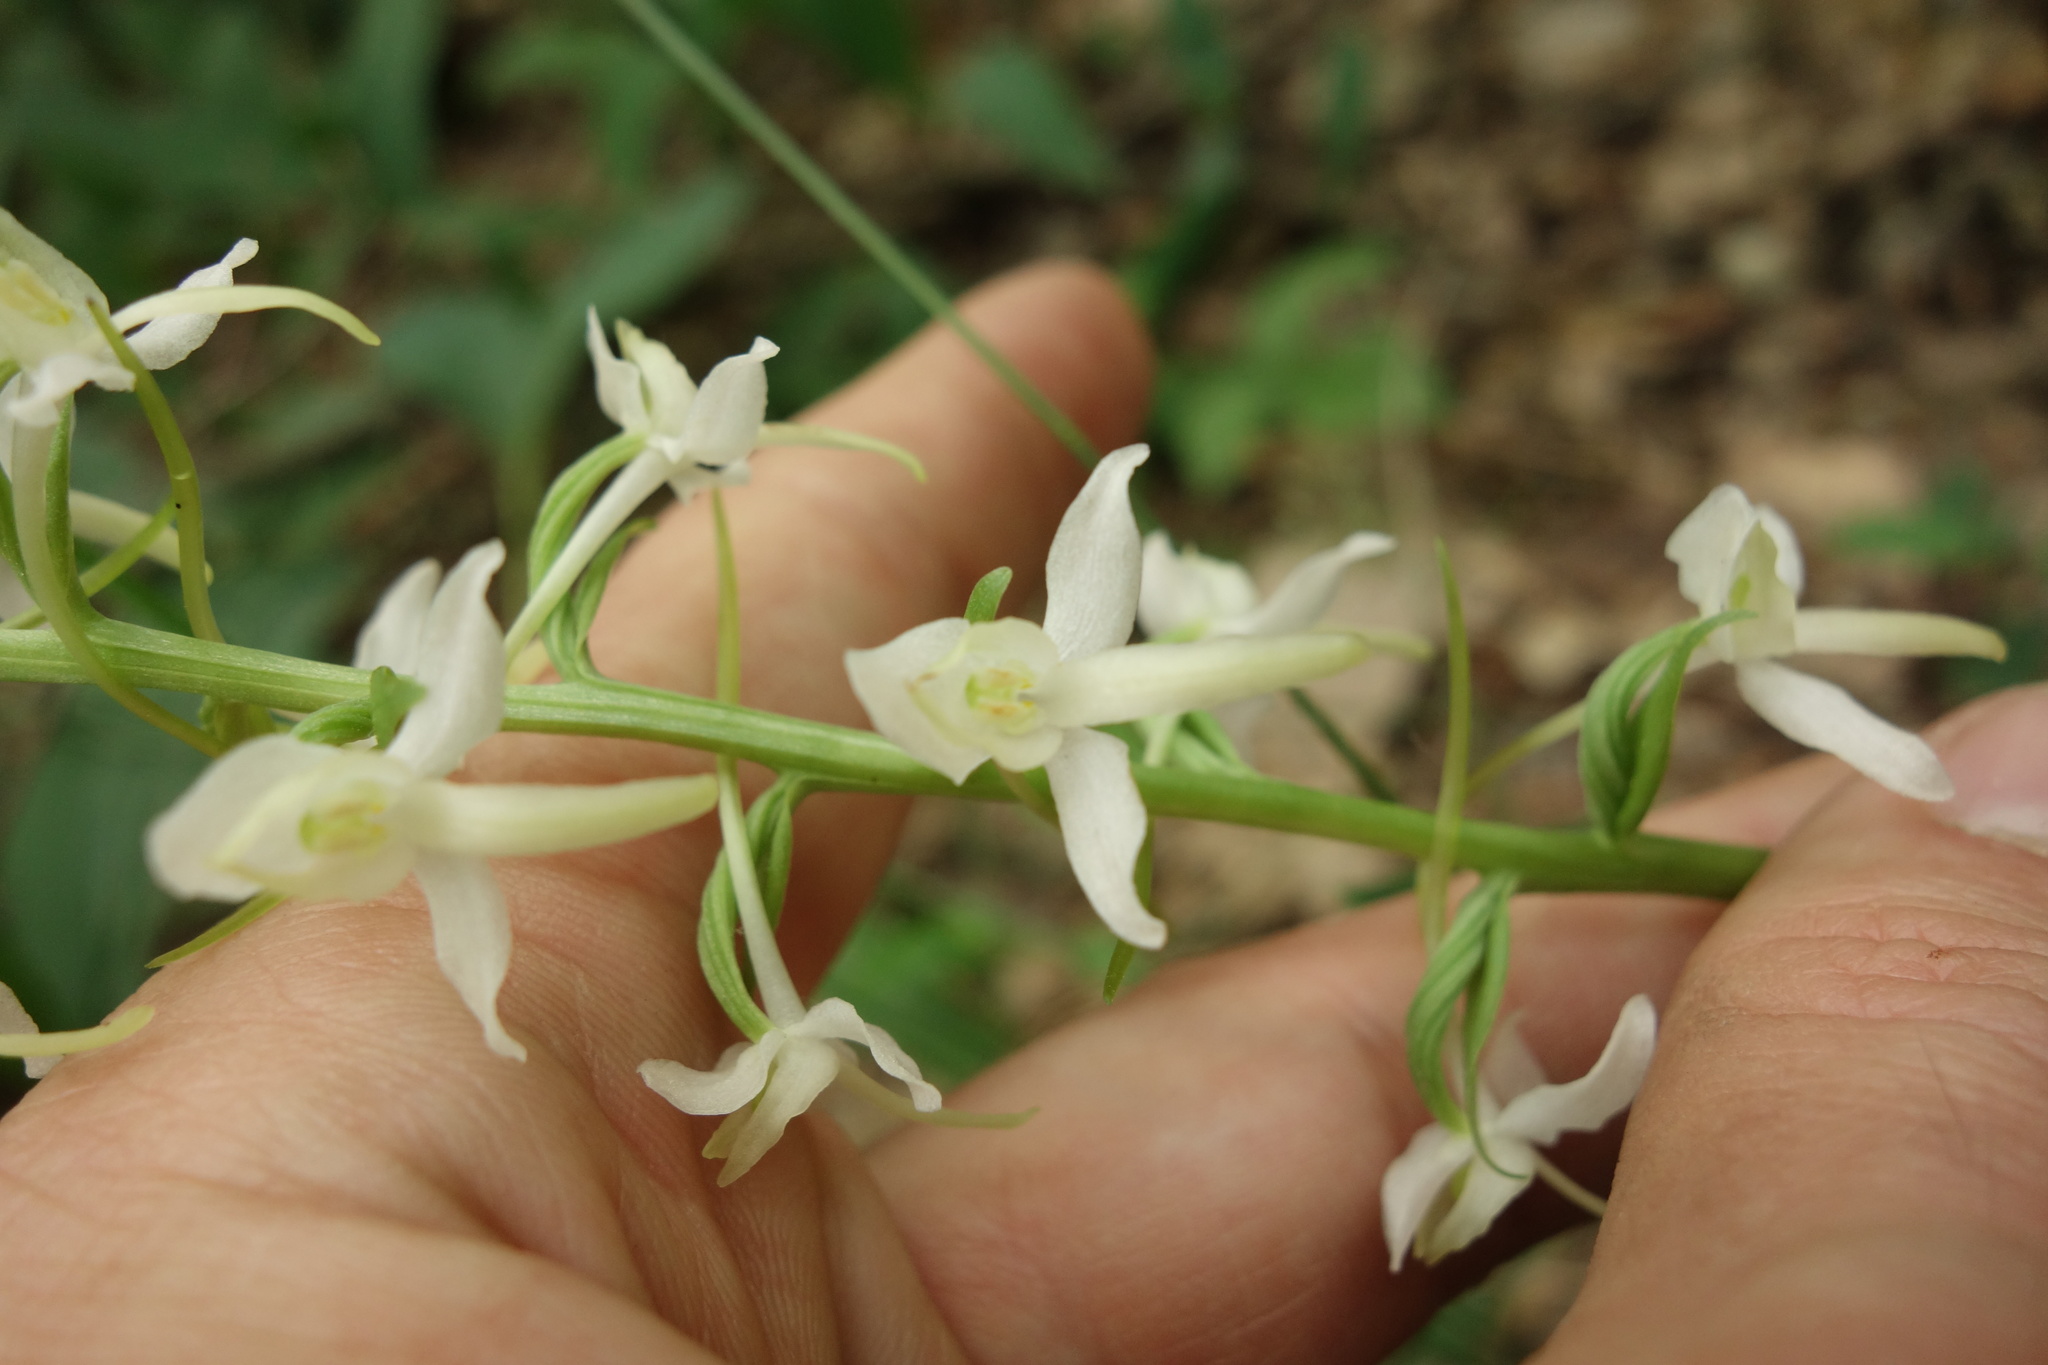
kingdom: Plantae
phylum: Tracheophyta
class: Liliopsida
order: Asparagales
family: Orchidaceae
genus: Platanthera
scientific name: Platanthera bifolia
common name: Lesser butterfly-orchid
